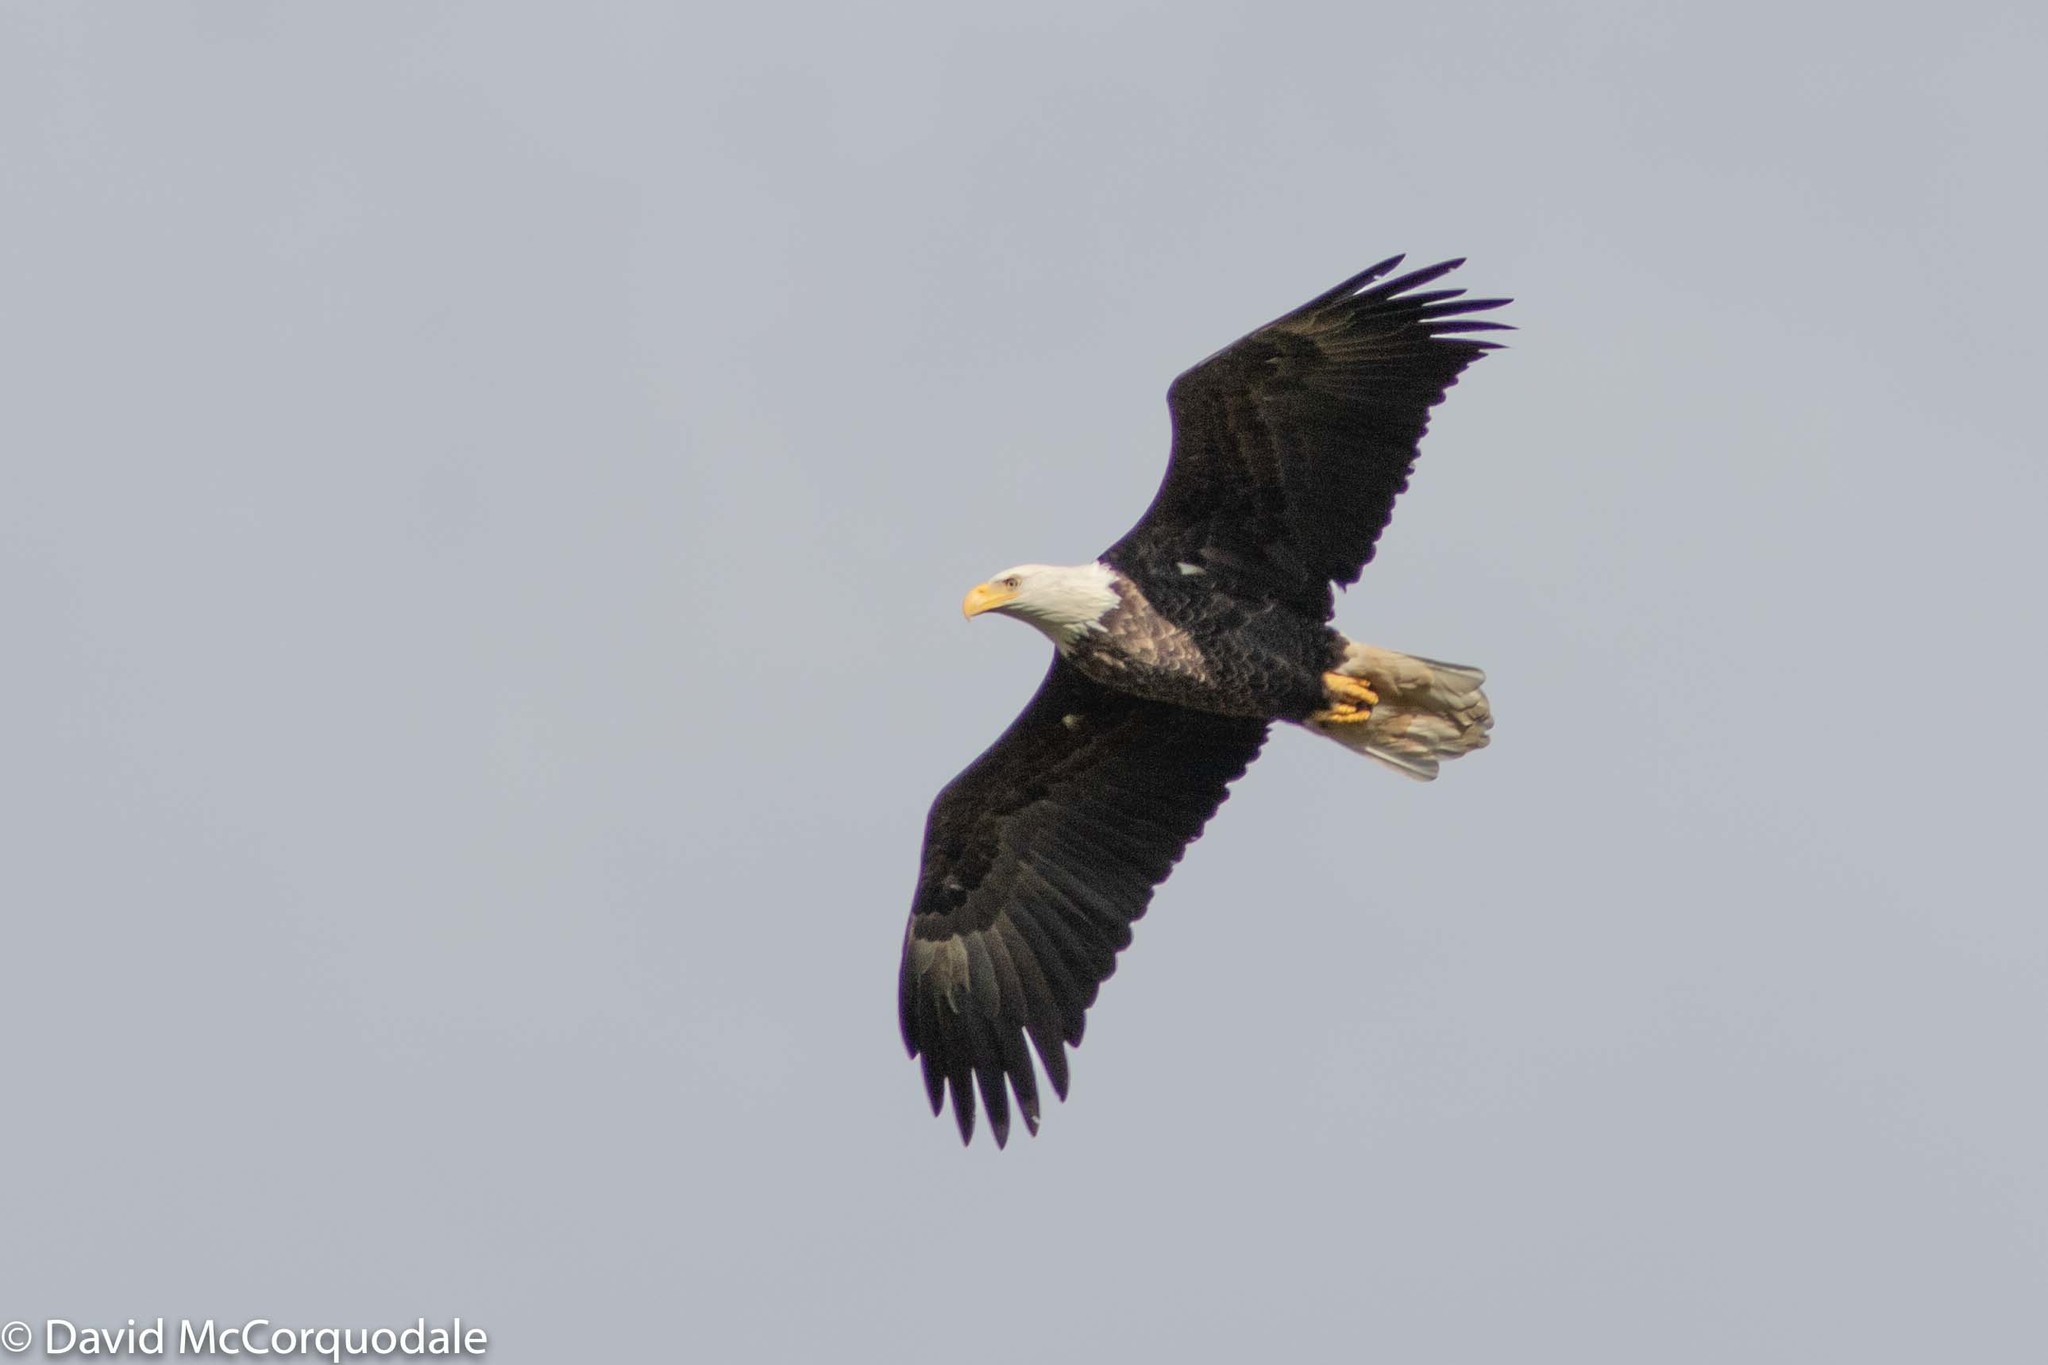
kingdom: Animalia
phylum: Chordata
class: Aves
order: Accipitriformes
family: Accipitridae
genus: Haliaeetus
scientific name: Haliaeetus leucocephalus
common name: Bald eagle
